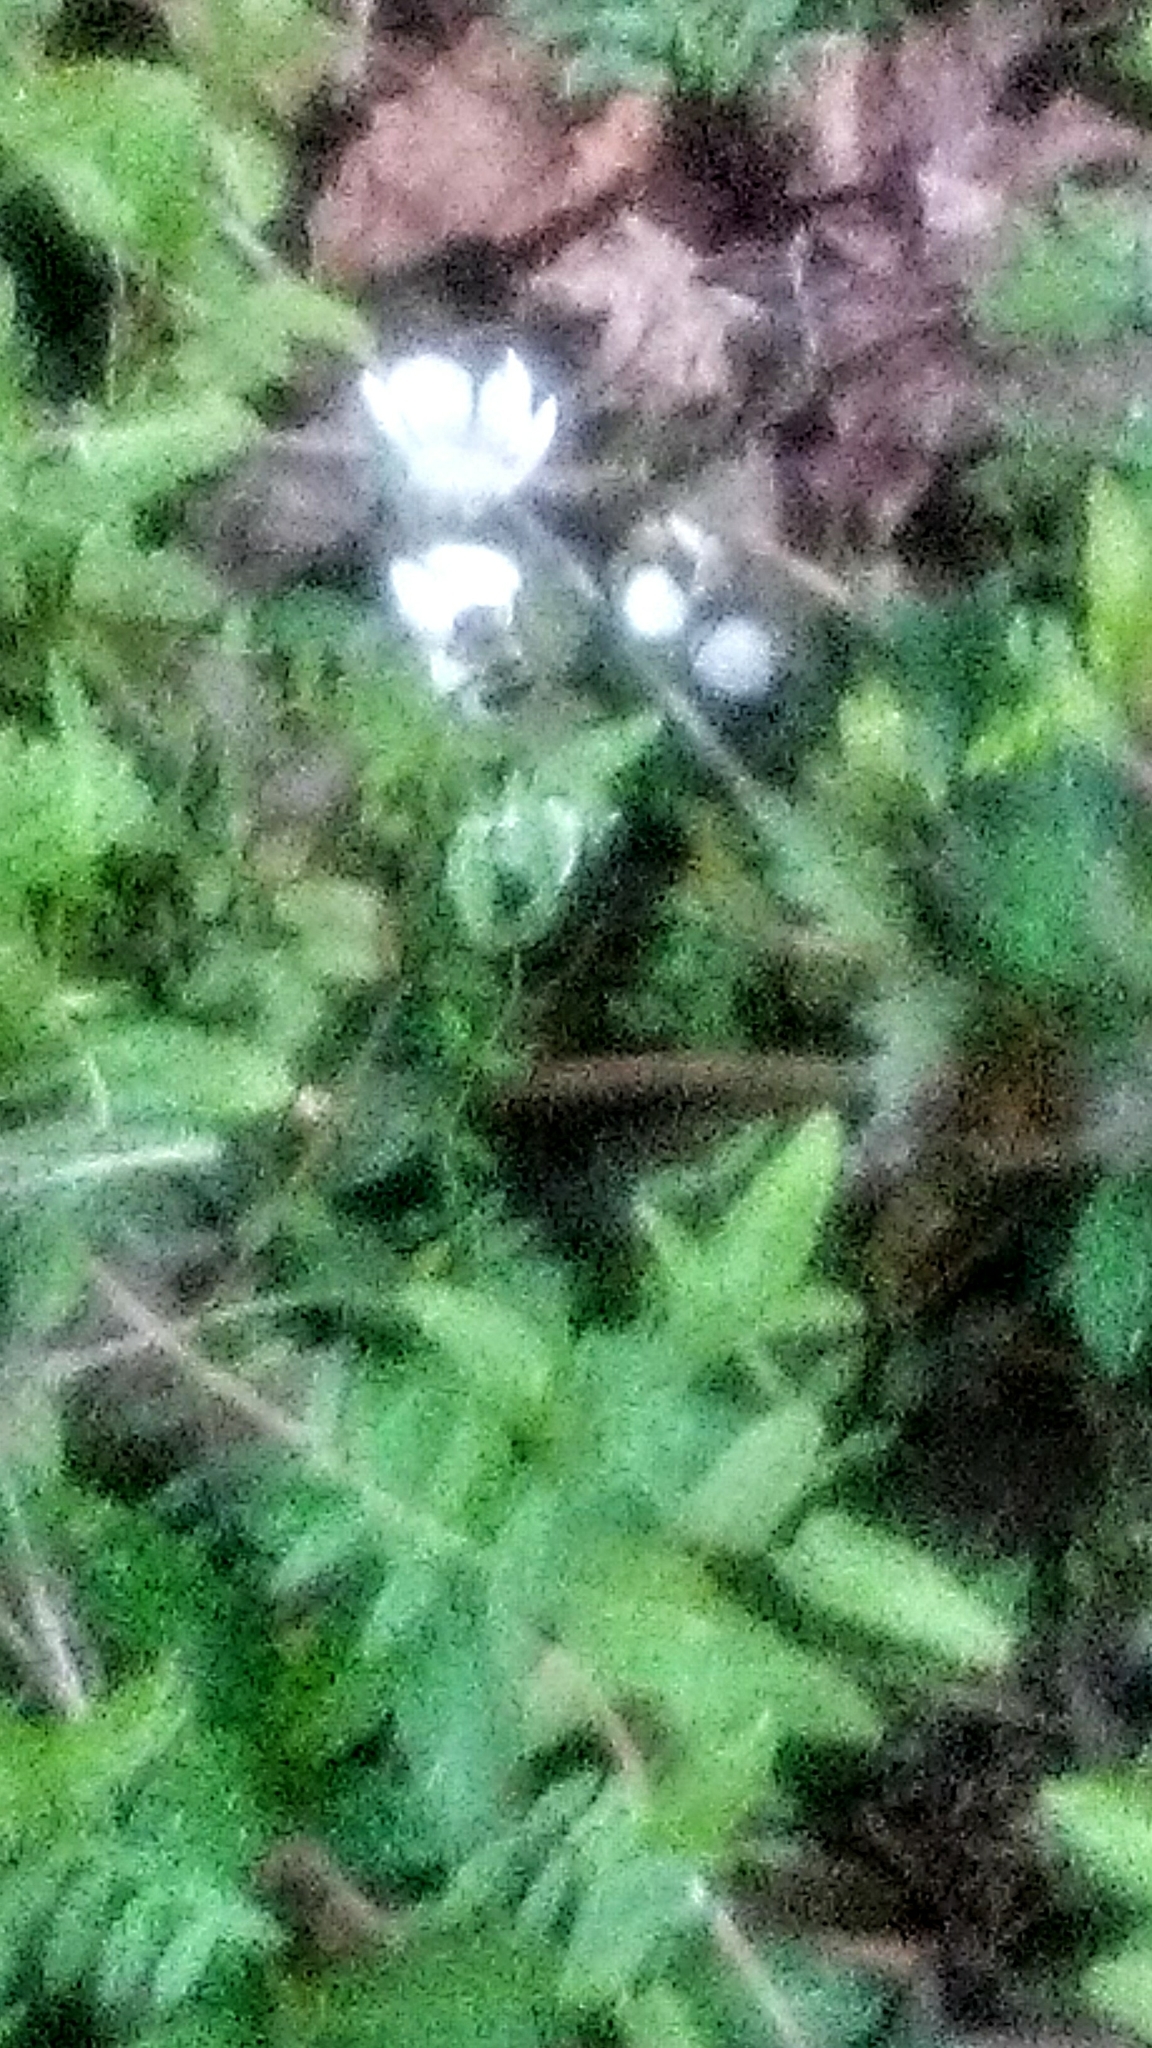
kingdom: Animalia
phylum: Arthropoda
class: Insecta
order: Hymenoptera
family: Apidae
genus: Habropoda
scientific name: Habropoda laboriosa
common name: Southeastern blueberry bee
